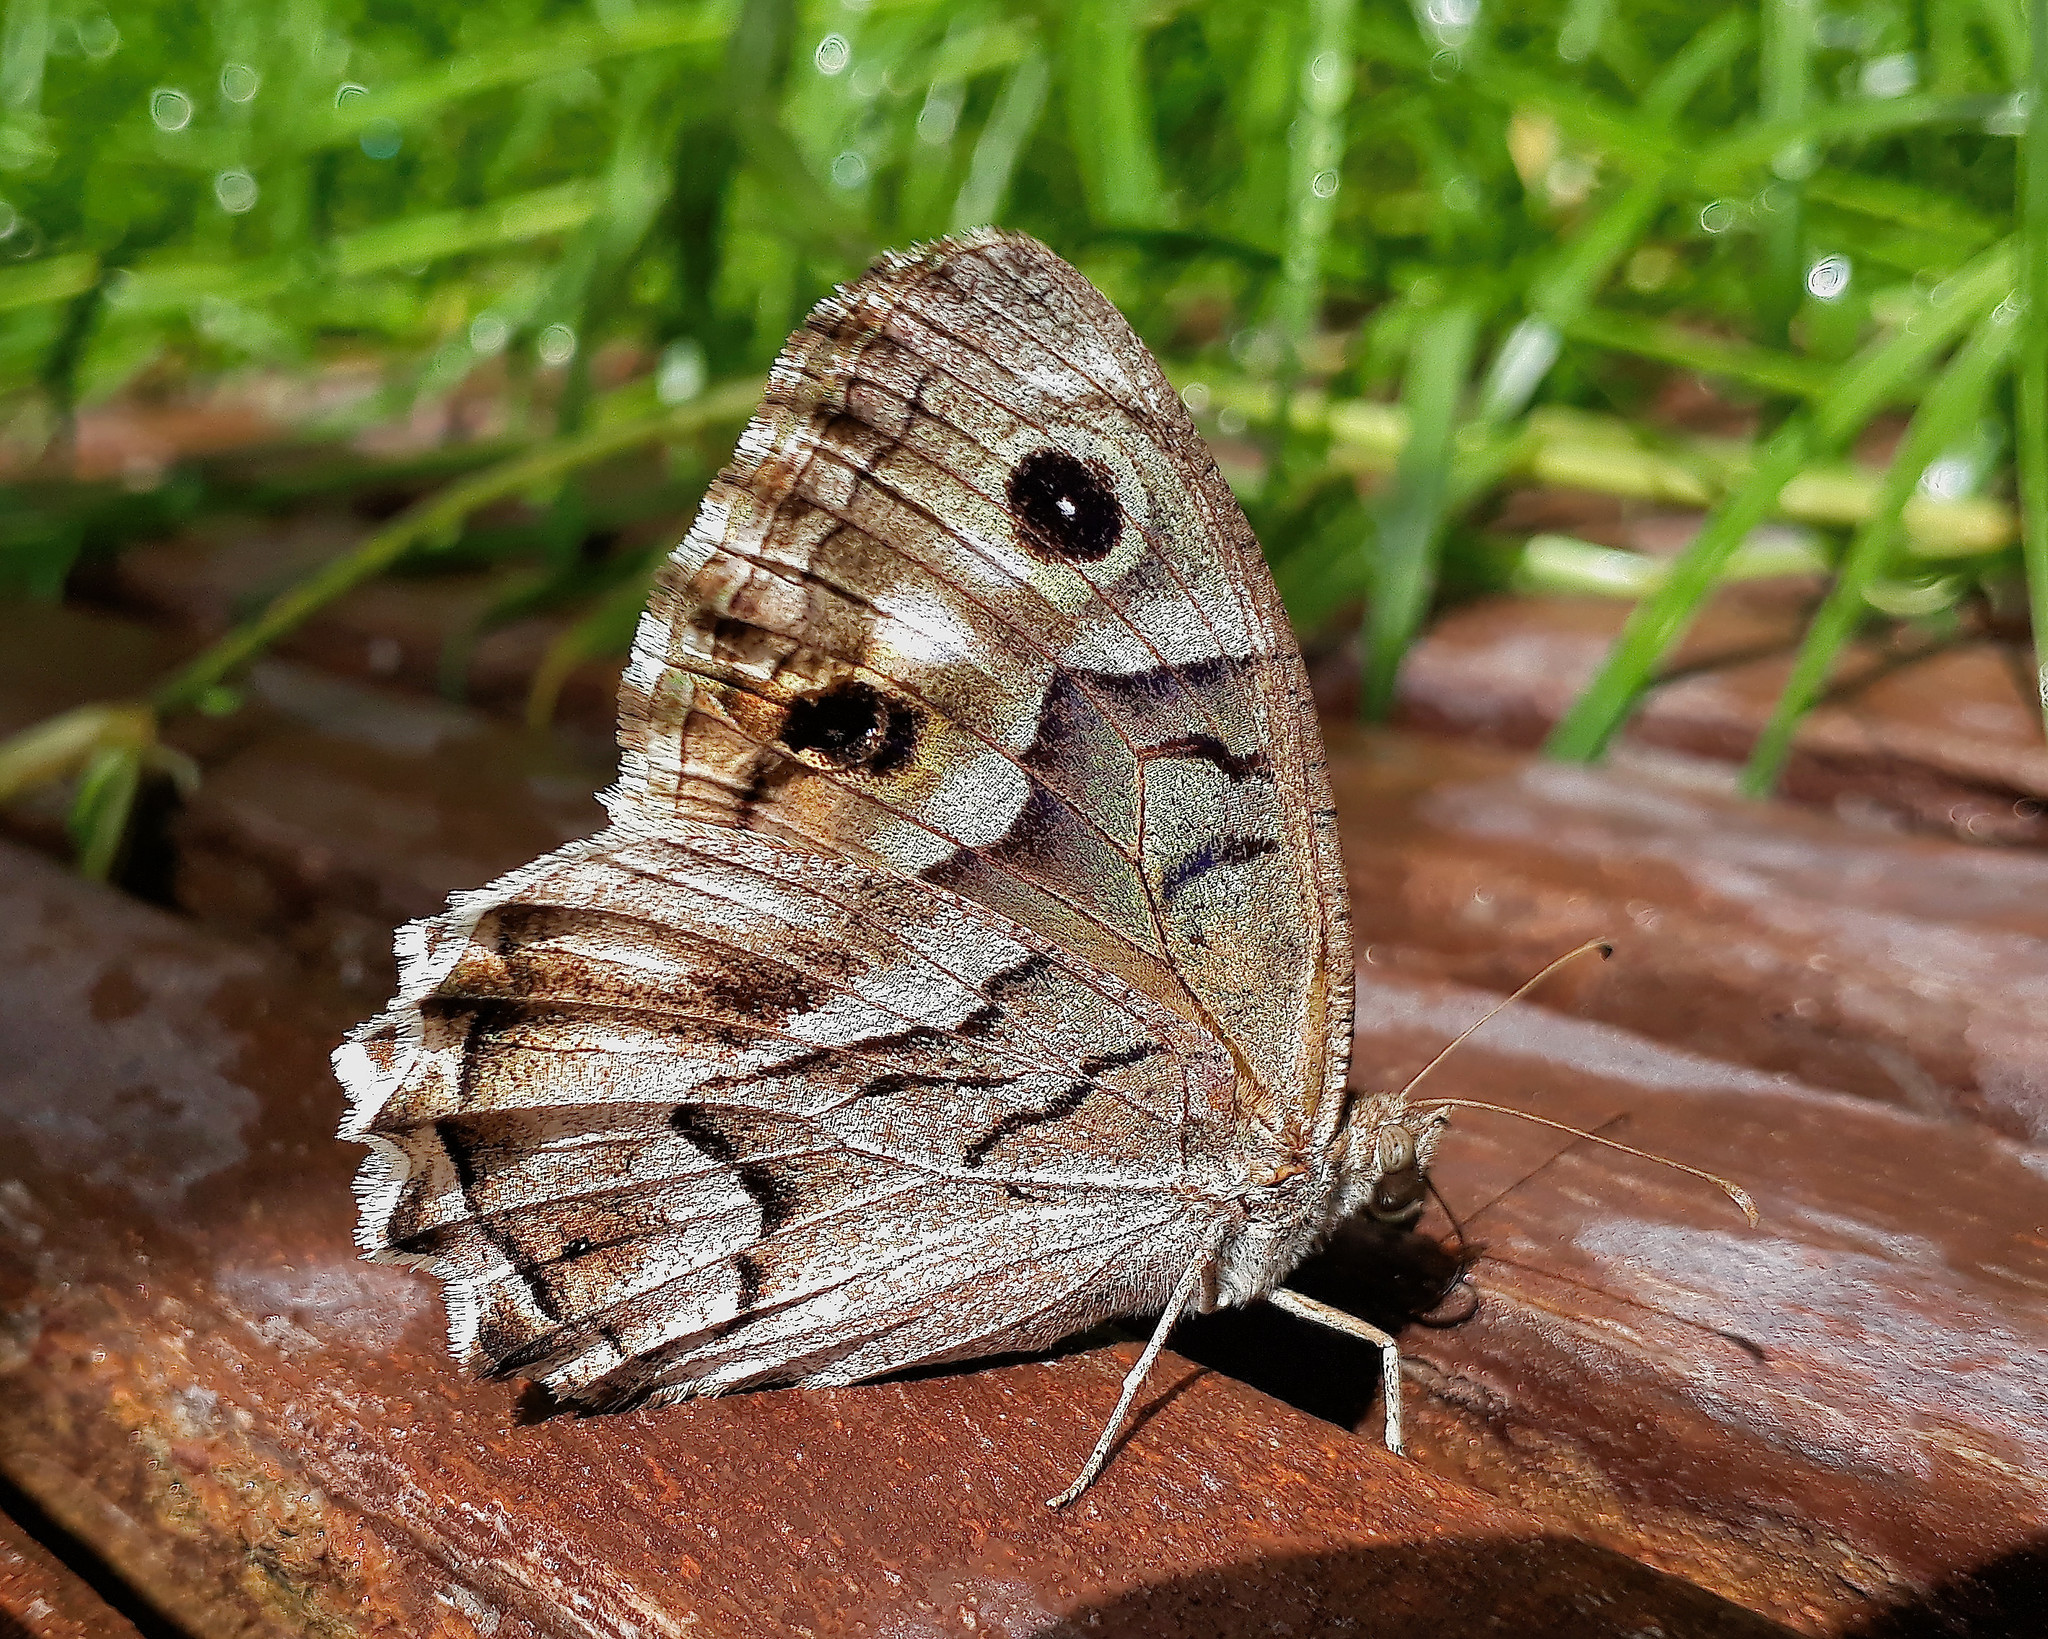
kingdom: Animalia
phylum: Arthropoda
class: Insecta
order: Lepidoptera
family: Nymphalidae
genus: Hipparchia
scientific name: Hipparchia fidia
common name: Striped grayling
